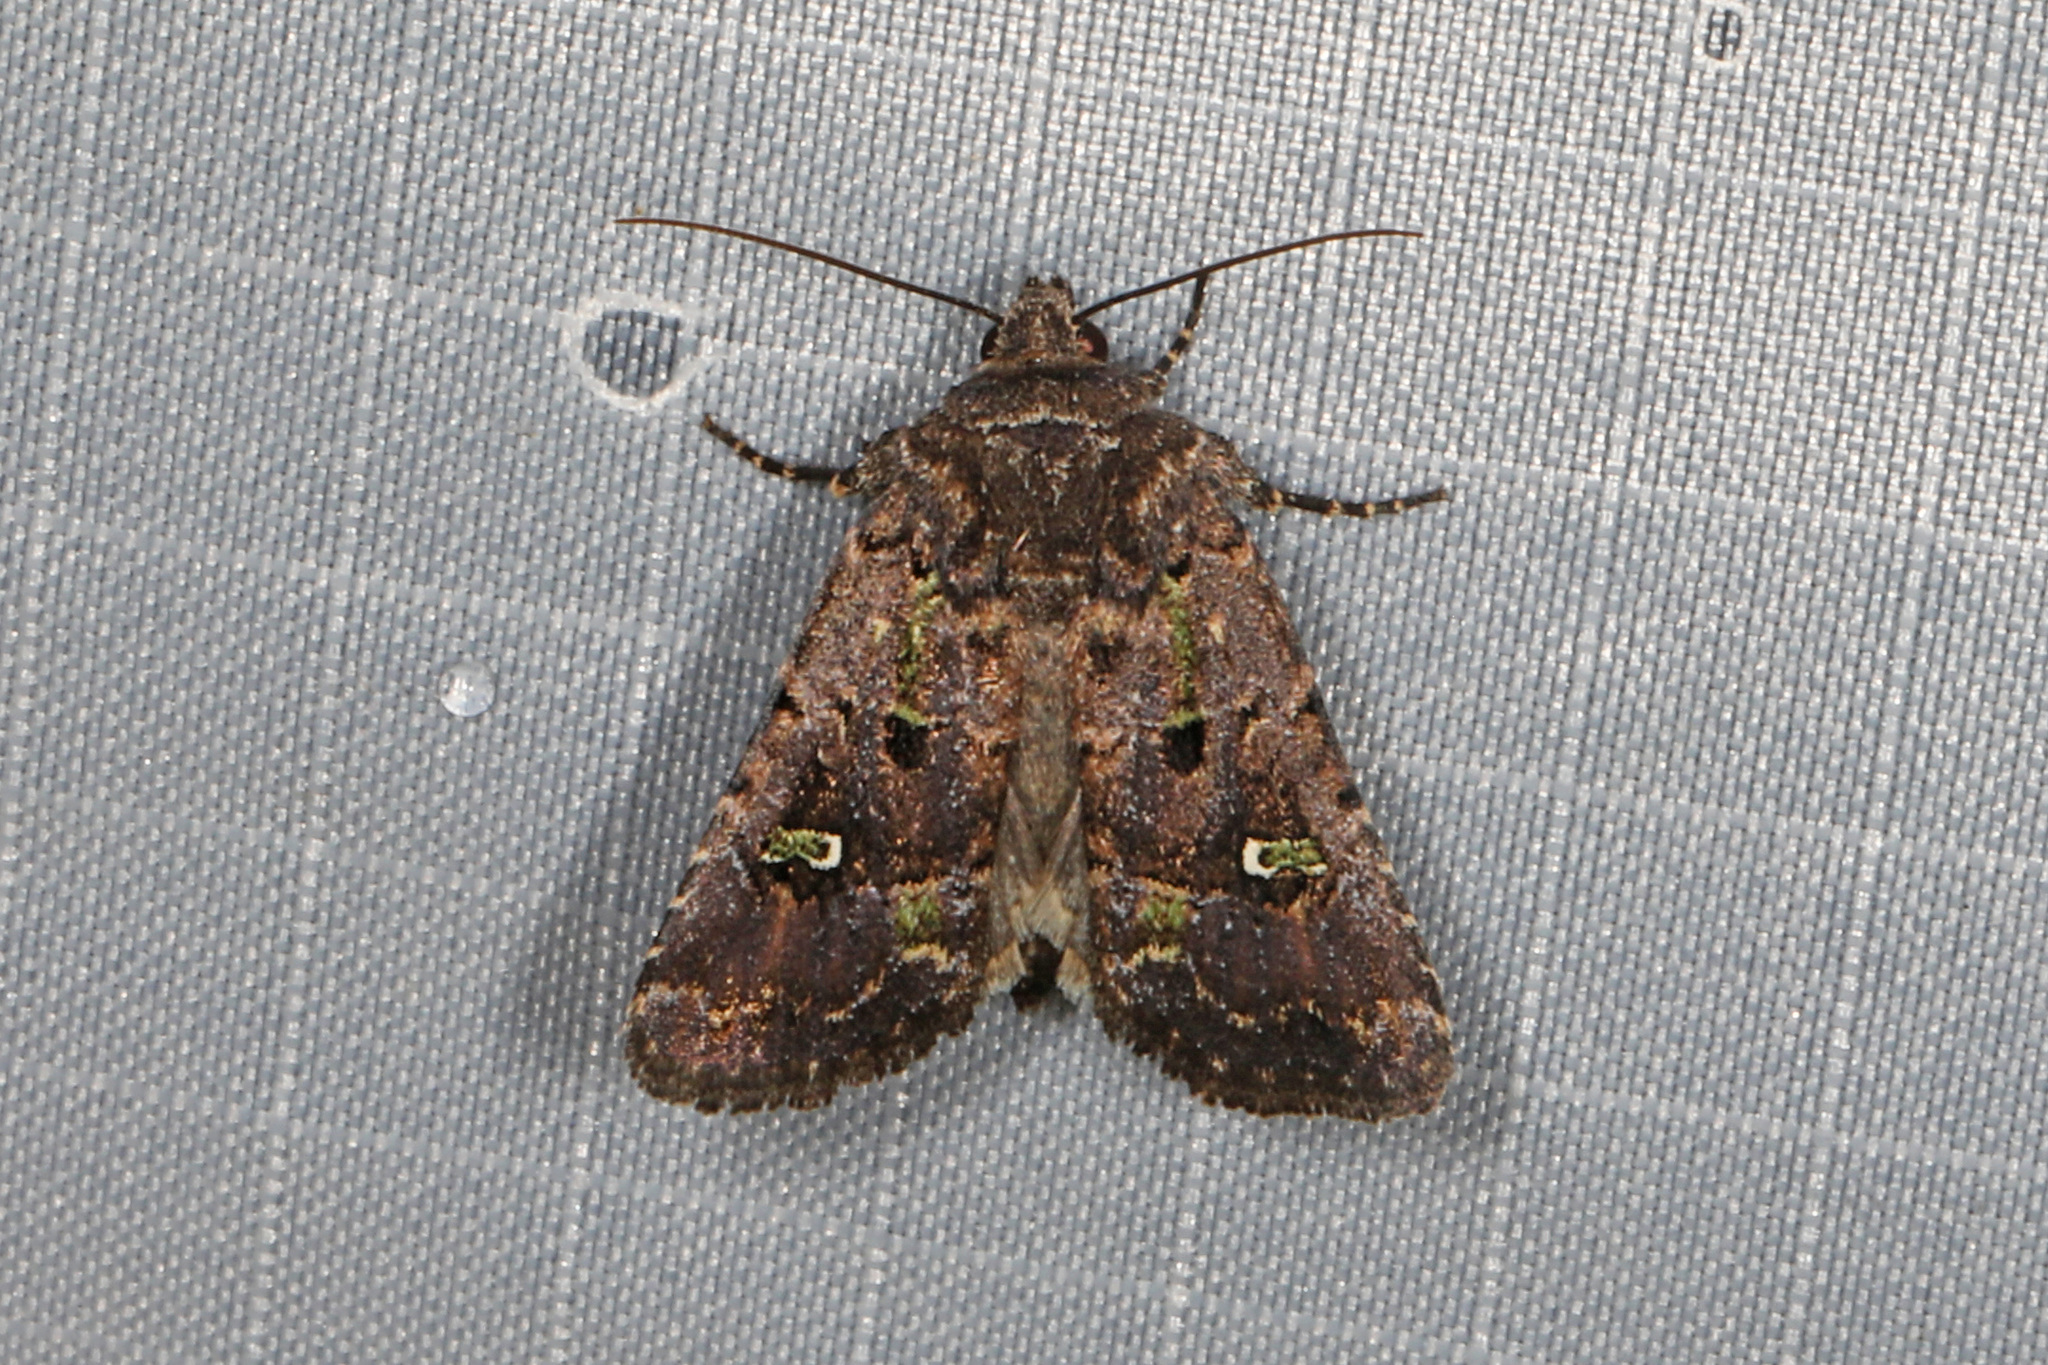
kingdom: Animalia
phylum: Arthropoda
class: Insecta
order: Lepidoptera
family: Noctuidae
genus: Lacinipolia
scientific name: Lacinipolia renigera
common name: Kidney-spotted minor
